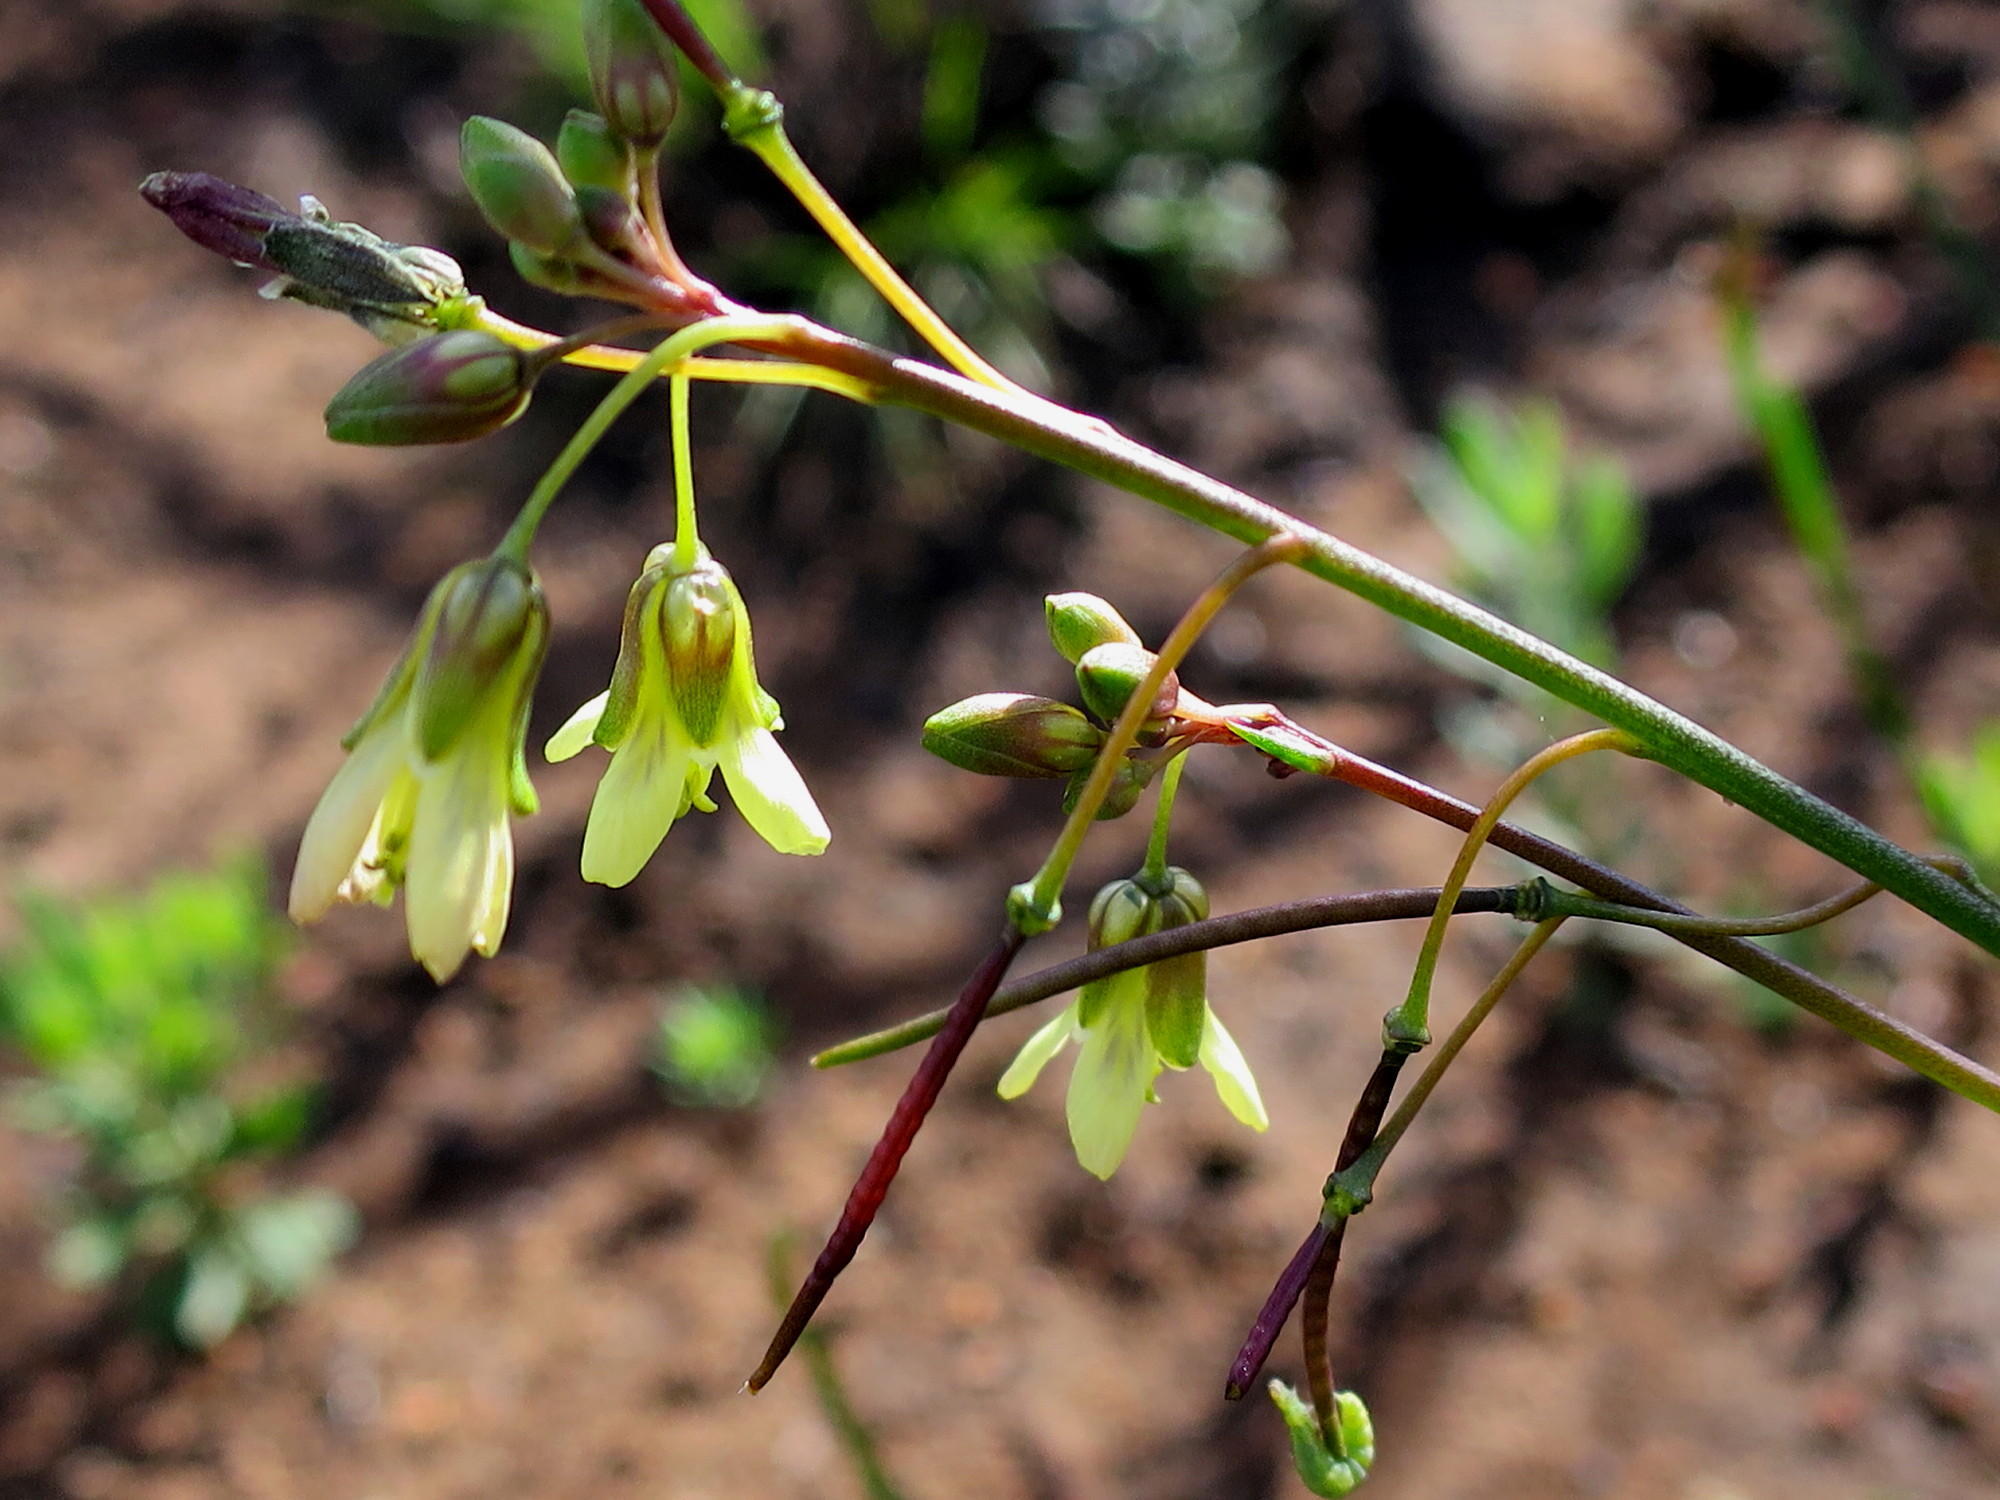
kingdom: Plantae
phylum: Tracheophyta
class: Magnoliopsida
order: Brassicales
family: Brassicaceae
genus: Heliophila
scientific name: Heliophila elongata
